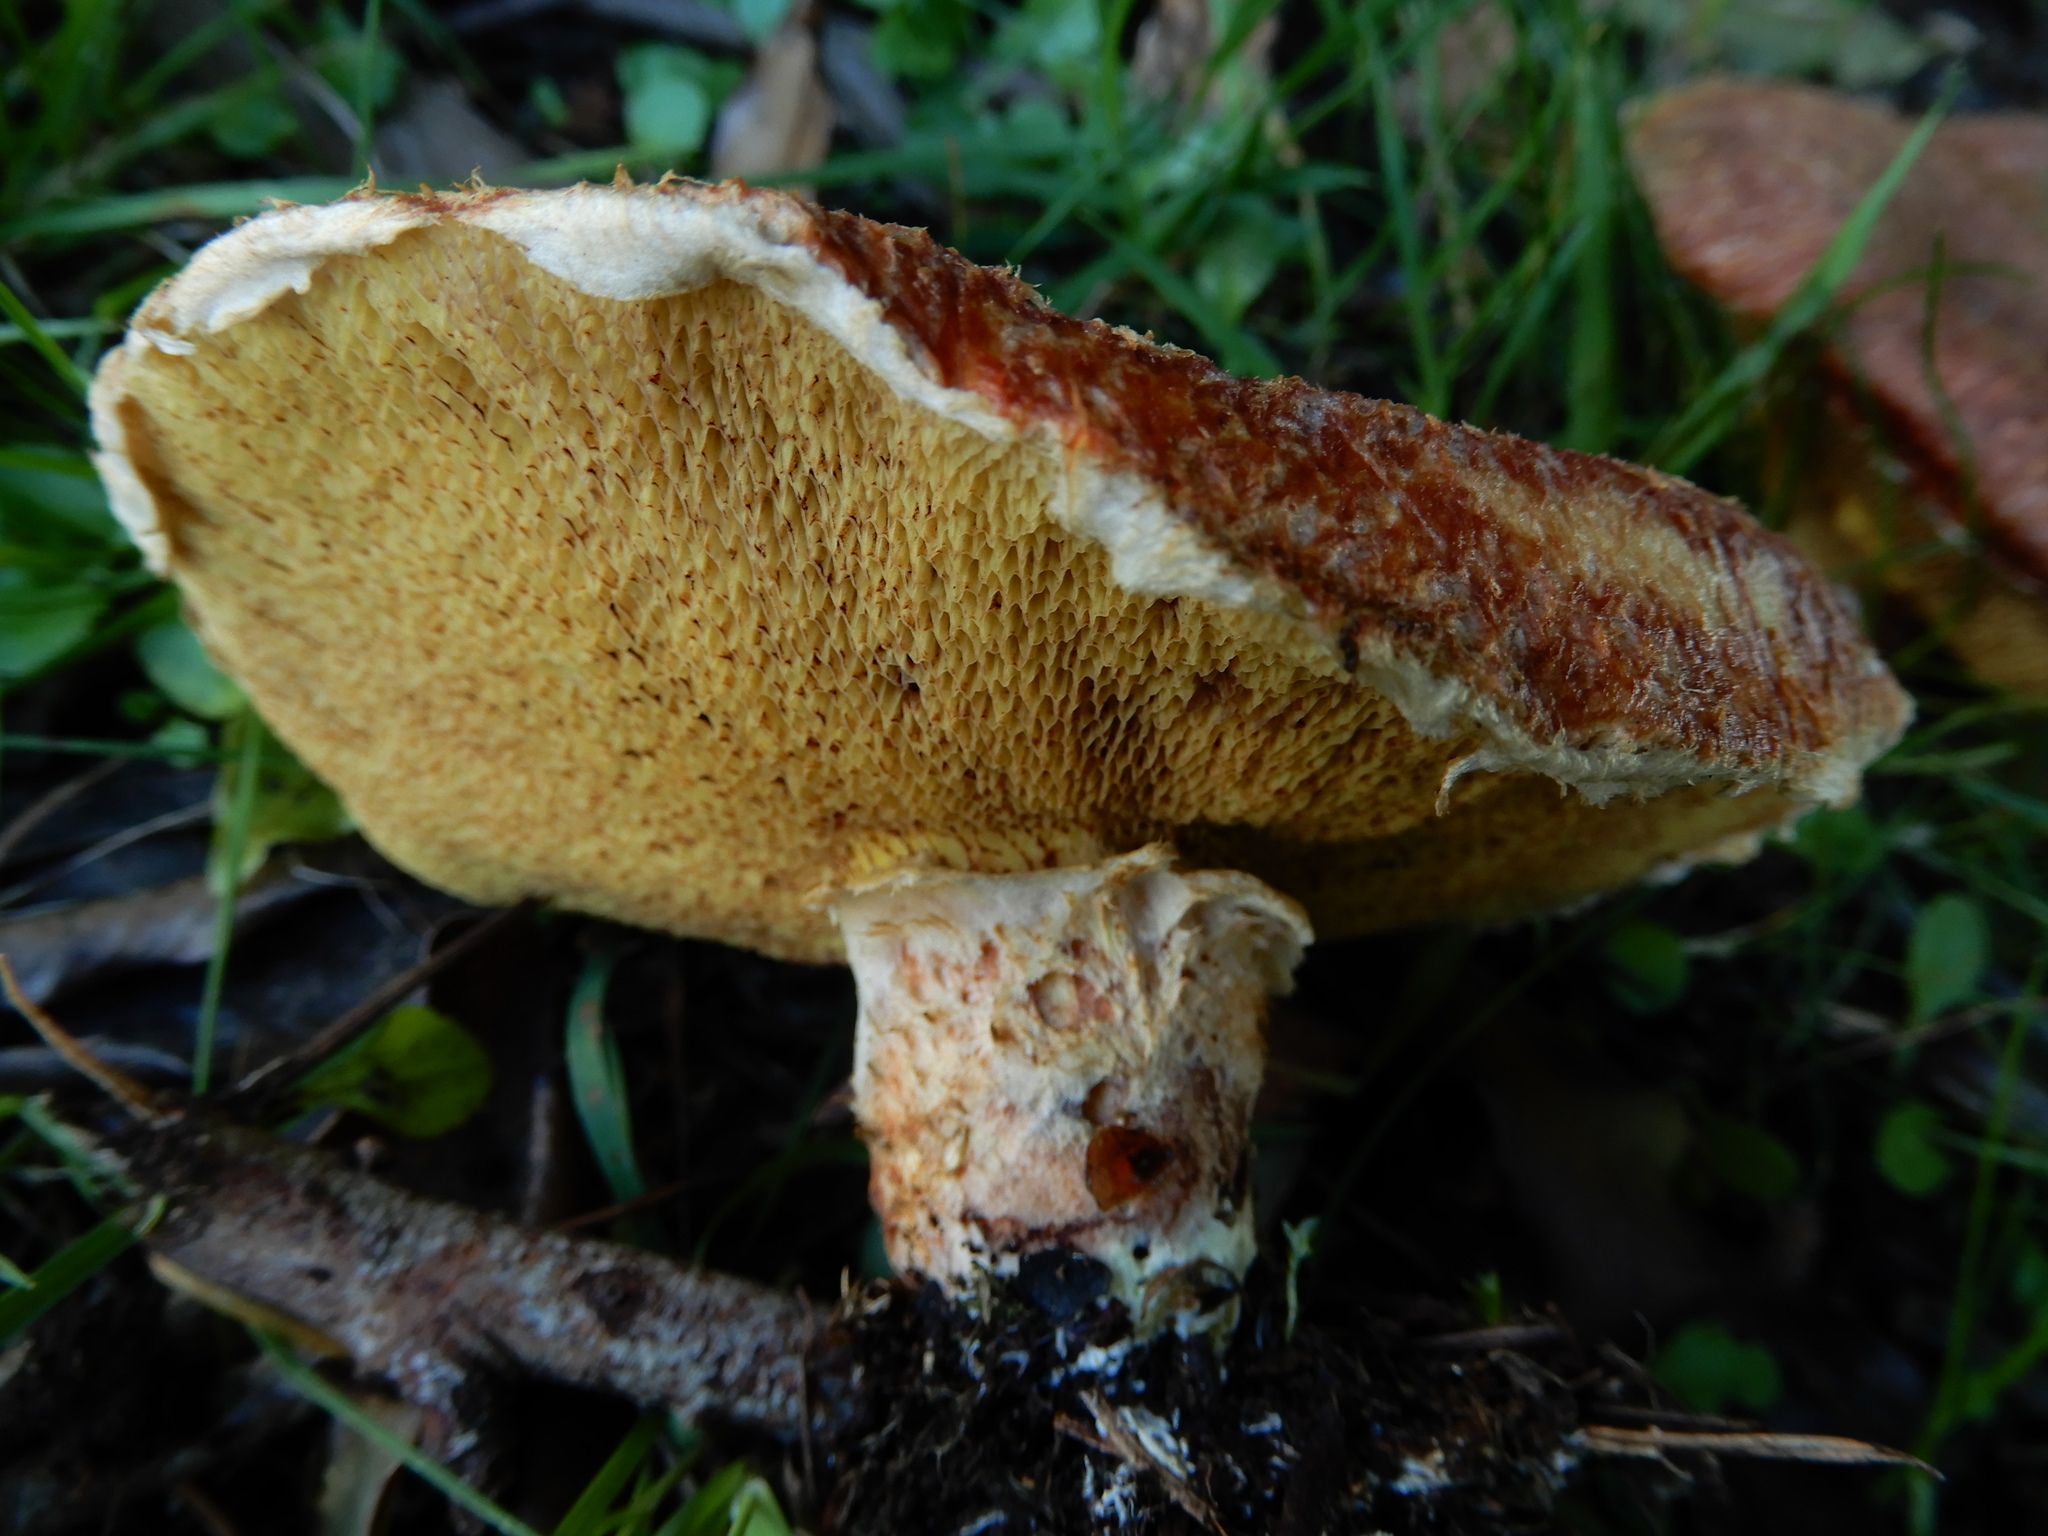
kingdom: Fungi
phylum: Basidiomycota
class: Agaricomycetes
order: Boletales
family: Suillaceae
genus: Suillus
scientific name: Suillus lakei
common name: Western painted suillus
